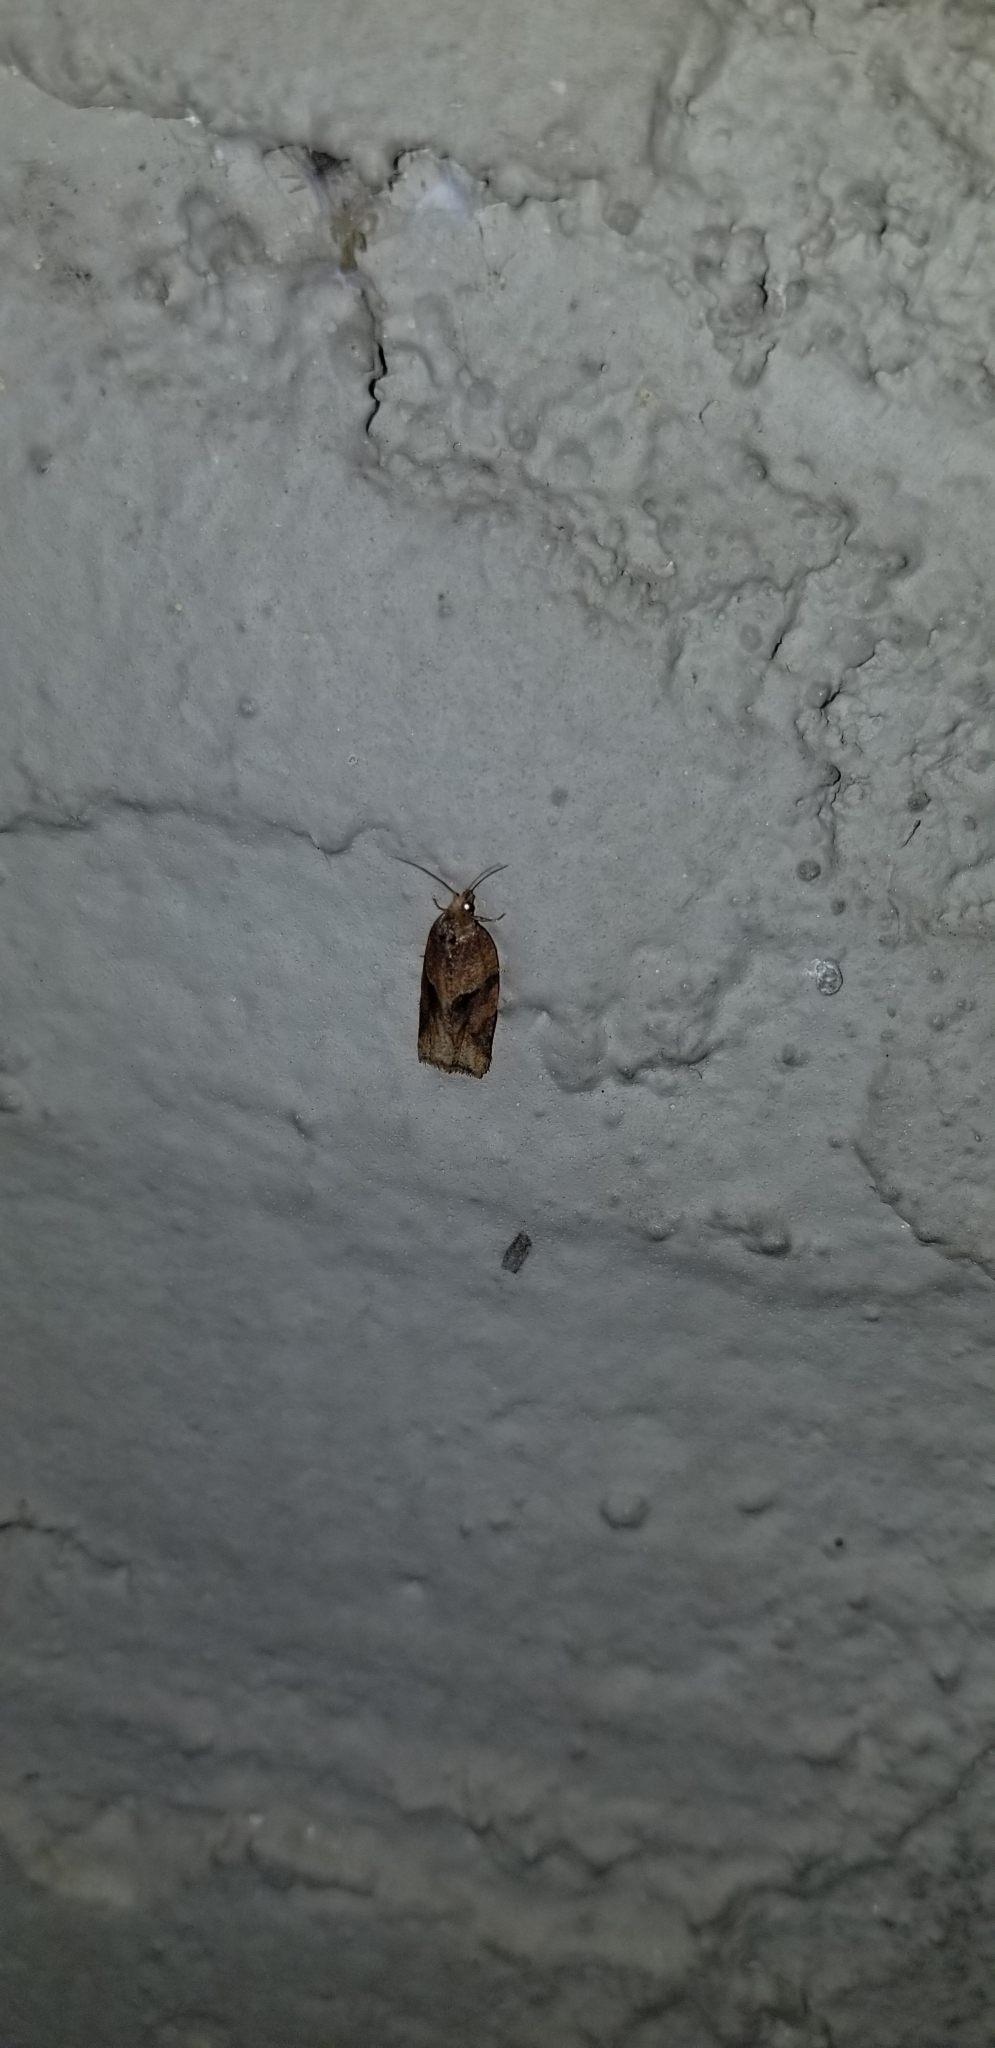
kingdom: Animalia
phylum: Arthropoda
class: Insecta
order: Lepidoptera
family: Tortricidae
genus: Clepsis
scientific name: Clepsis peritana
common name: Garden tortrix
